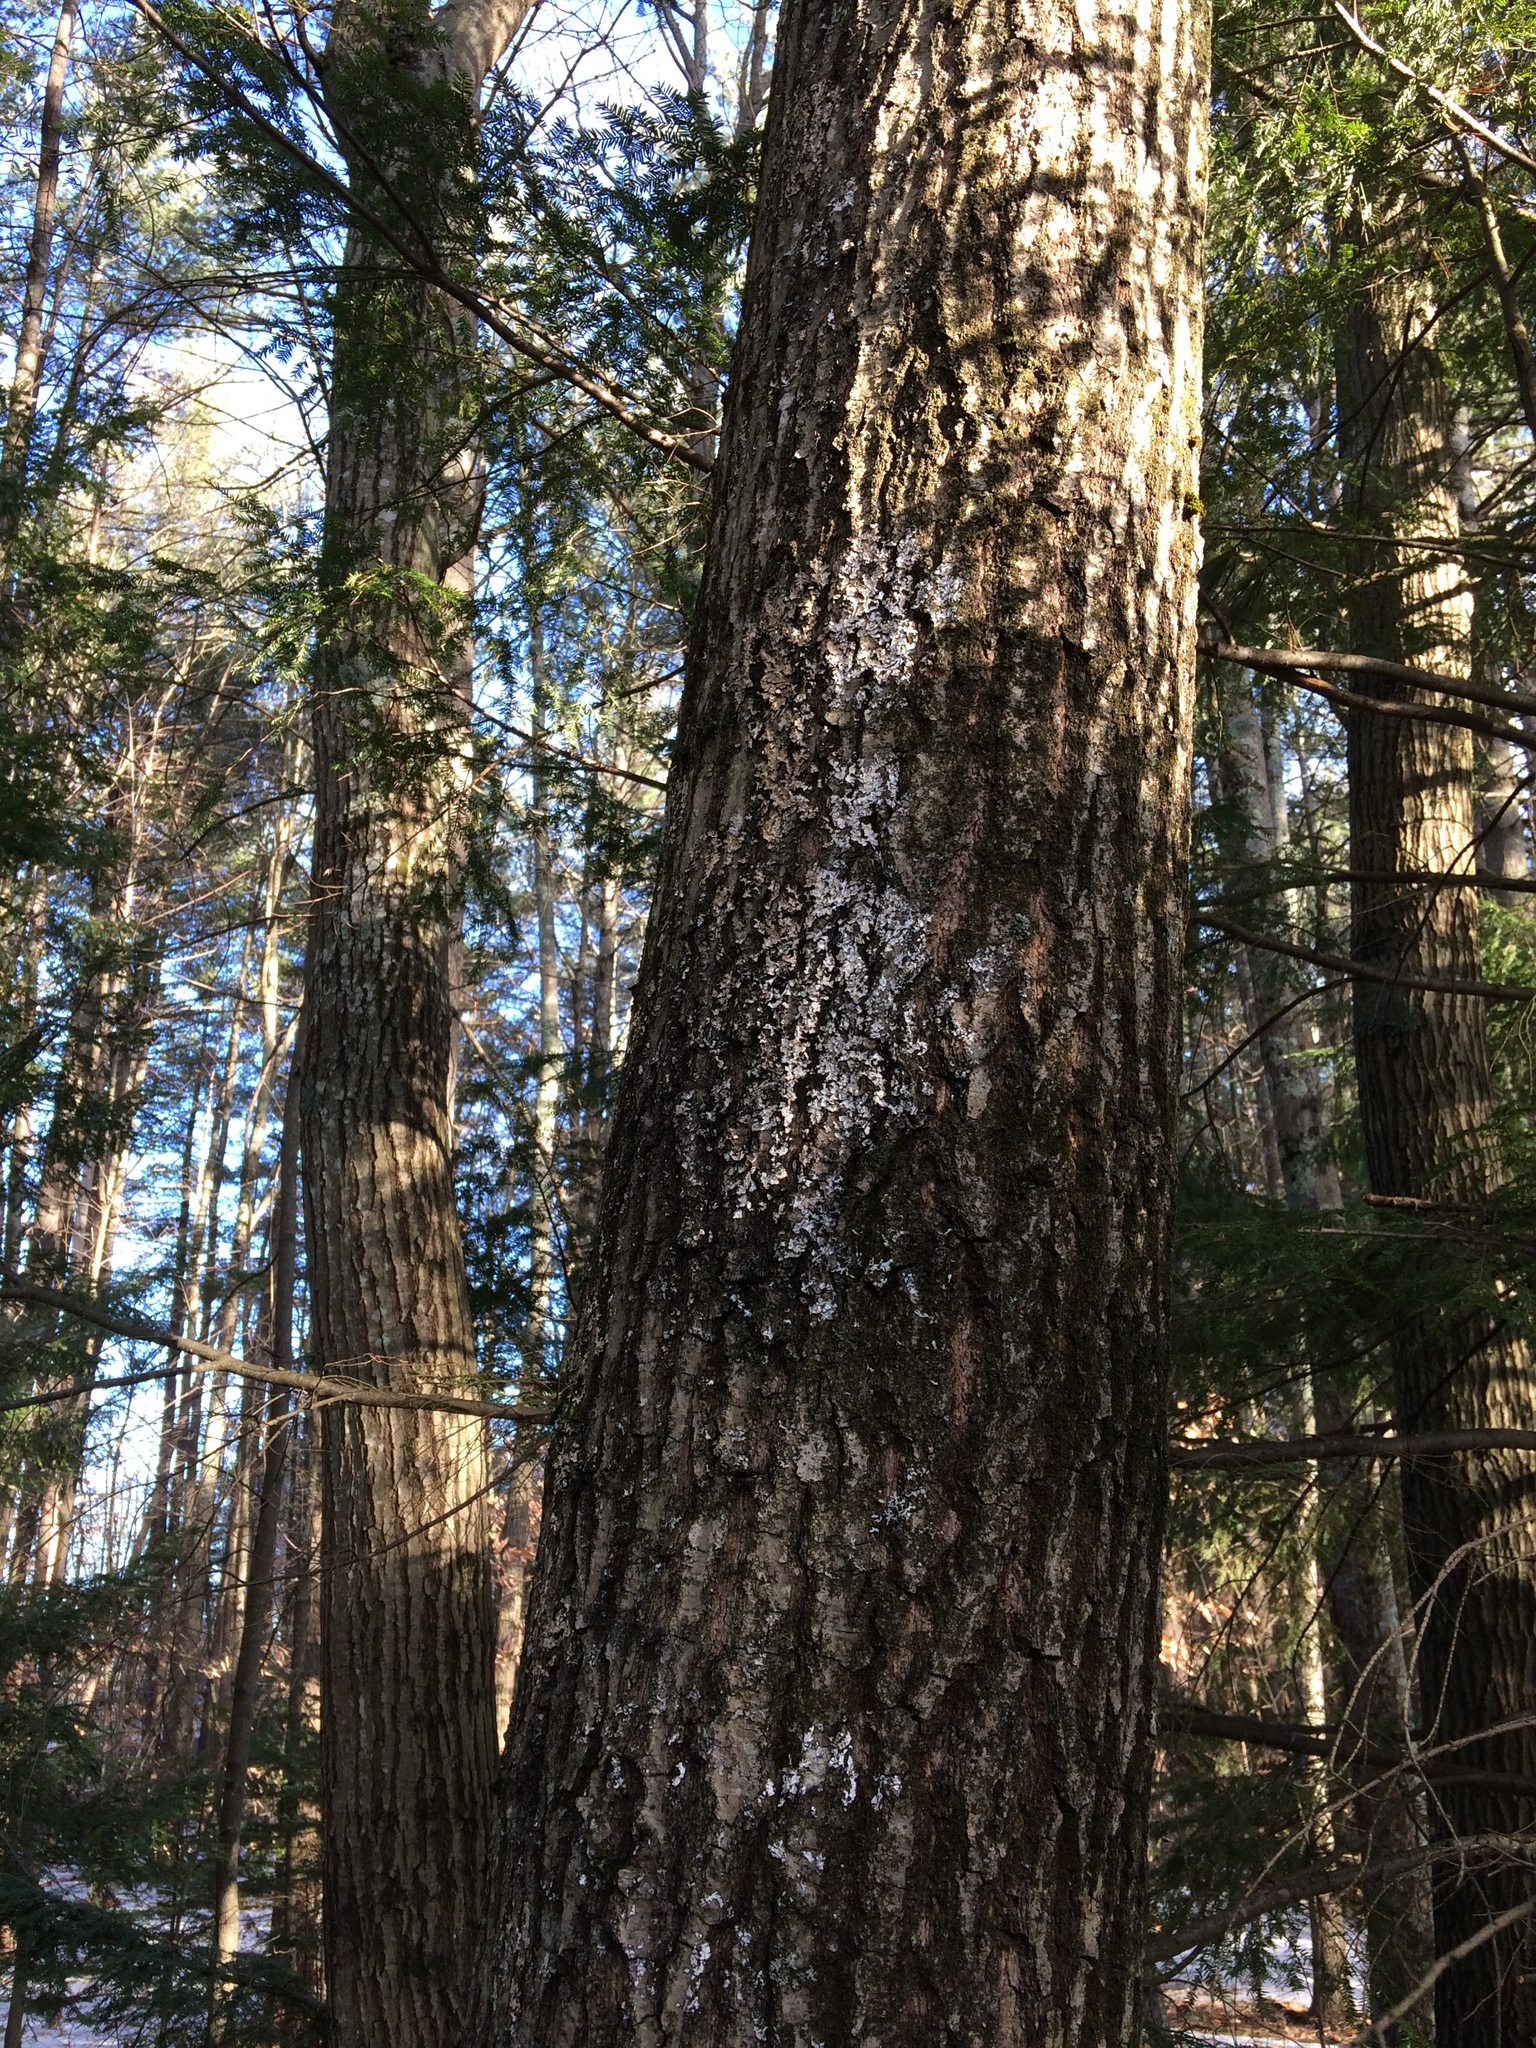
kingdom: Plantae
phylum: Tracheophyta
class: Magnoliopsida
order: Fagales
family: Fagaceae
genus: Quercus
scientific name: Quercus rubra
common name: Red oak
